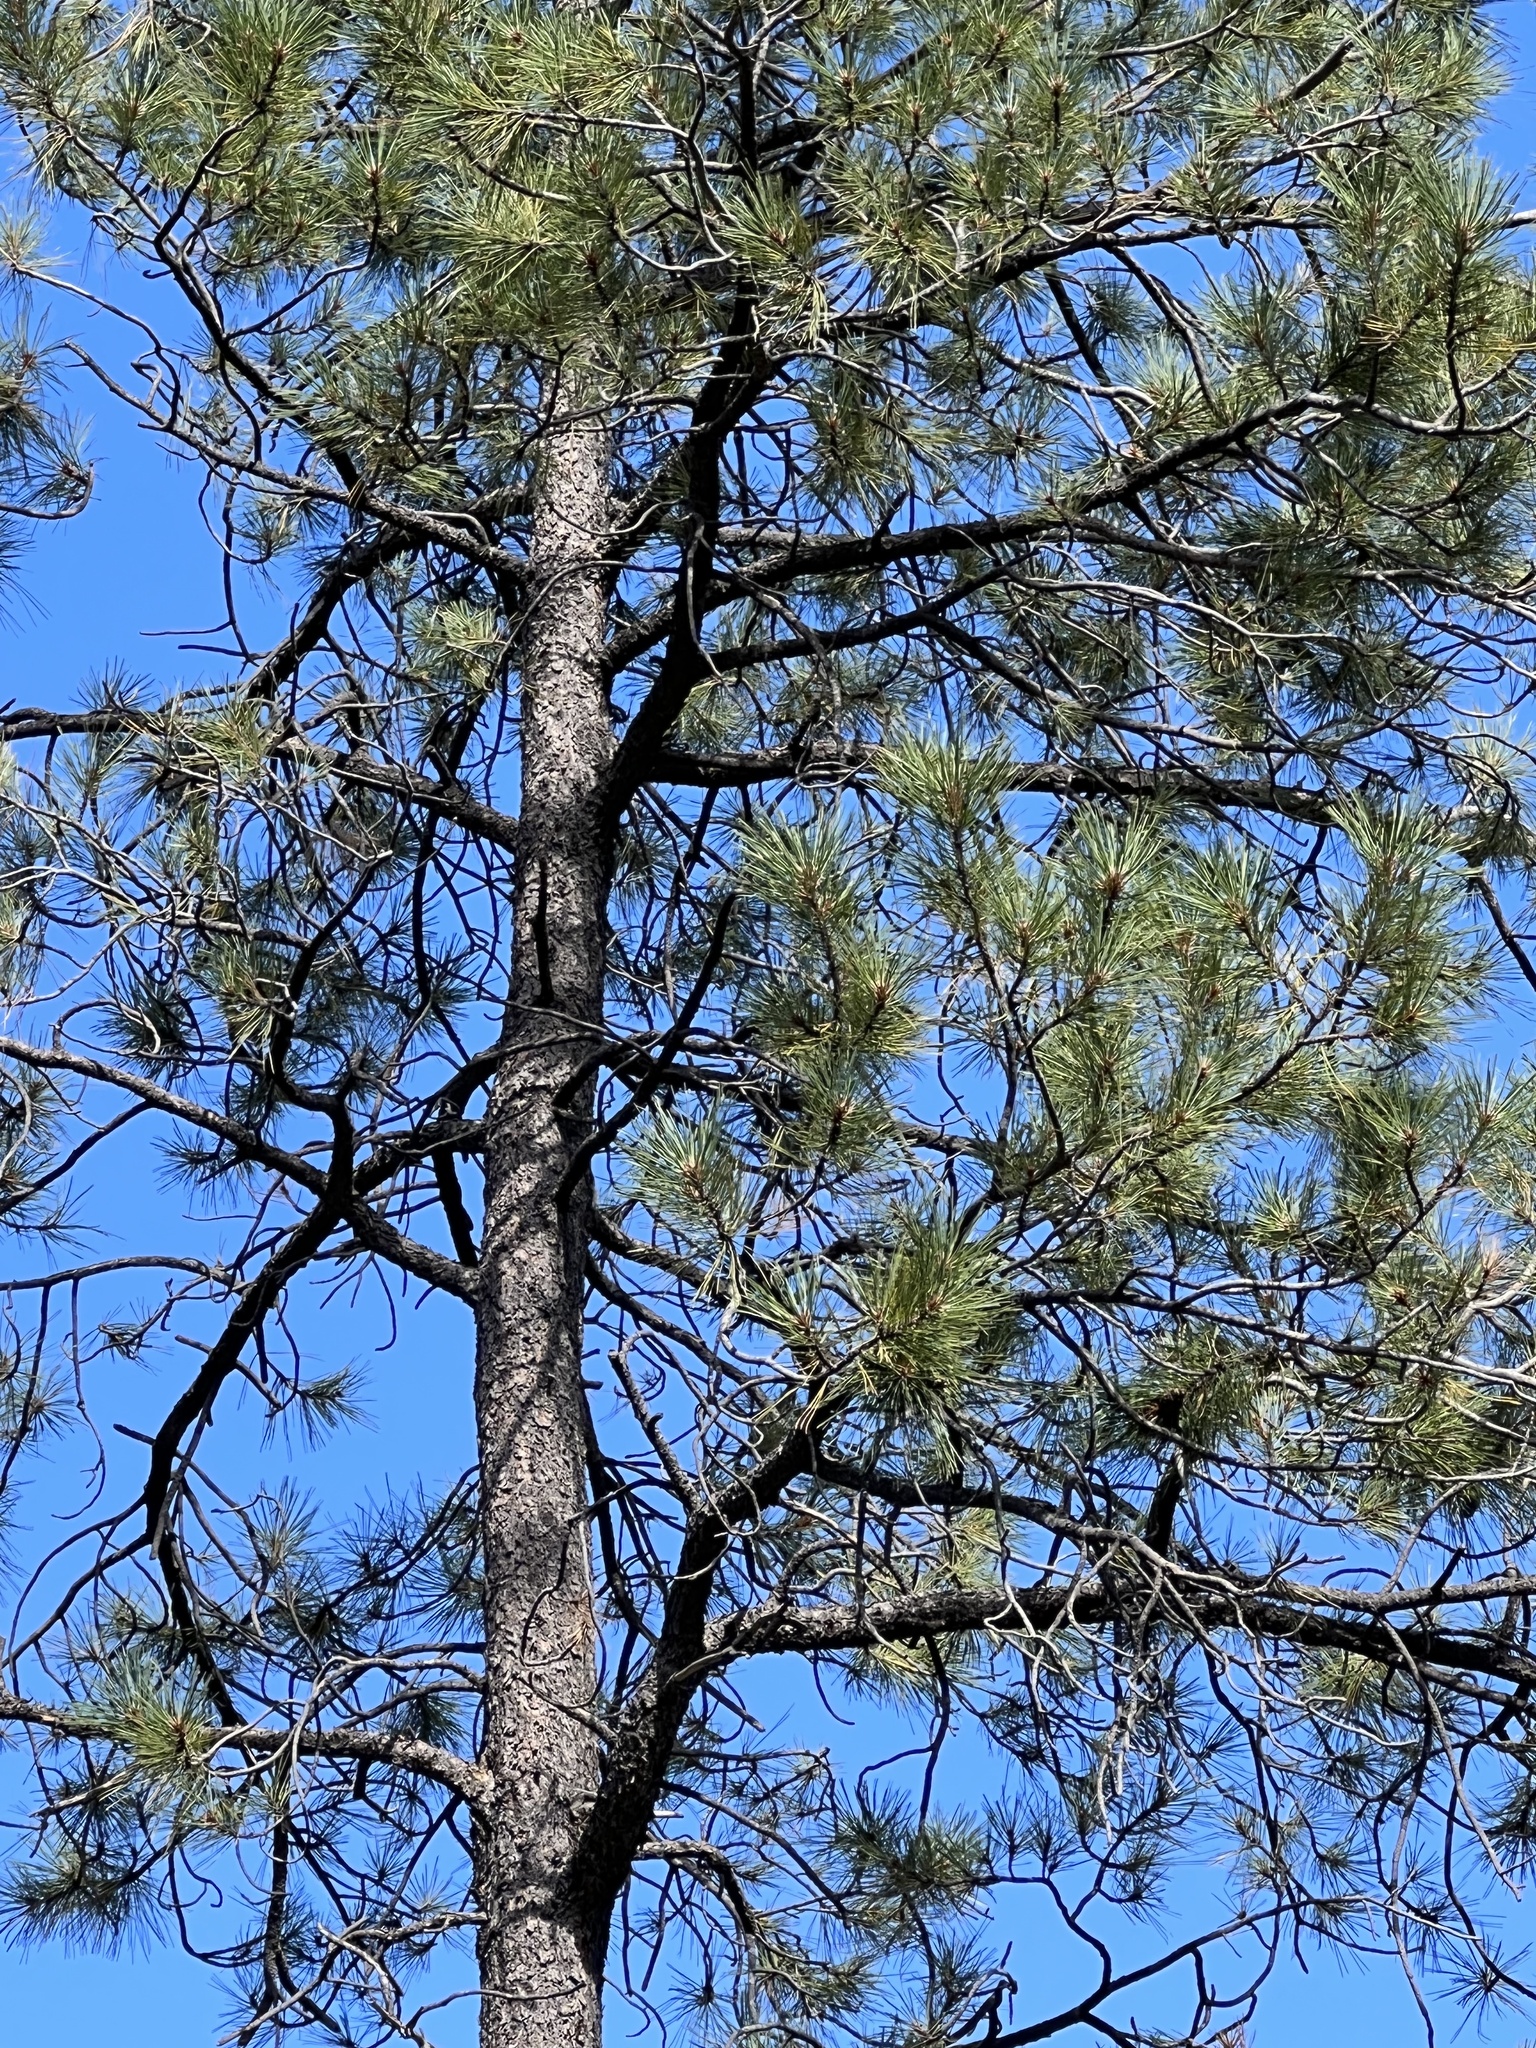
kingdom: Plantae
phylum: Tracheophyta
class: Pinopsida
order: Pinales
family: Pinaceae
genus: Pinus
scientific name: Pinus ponderosa
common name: Western yellow-pine
